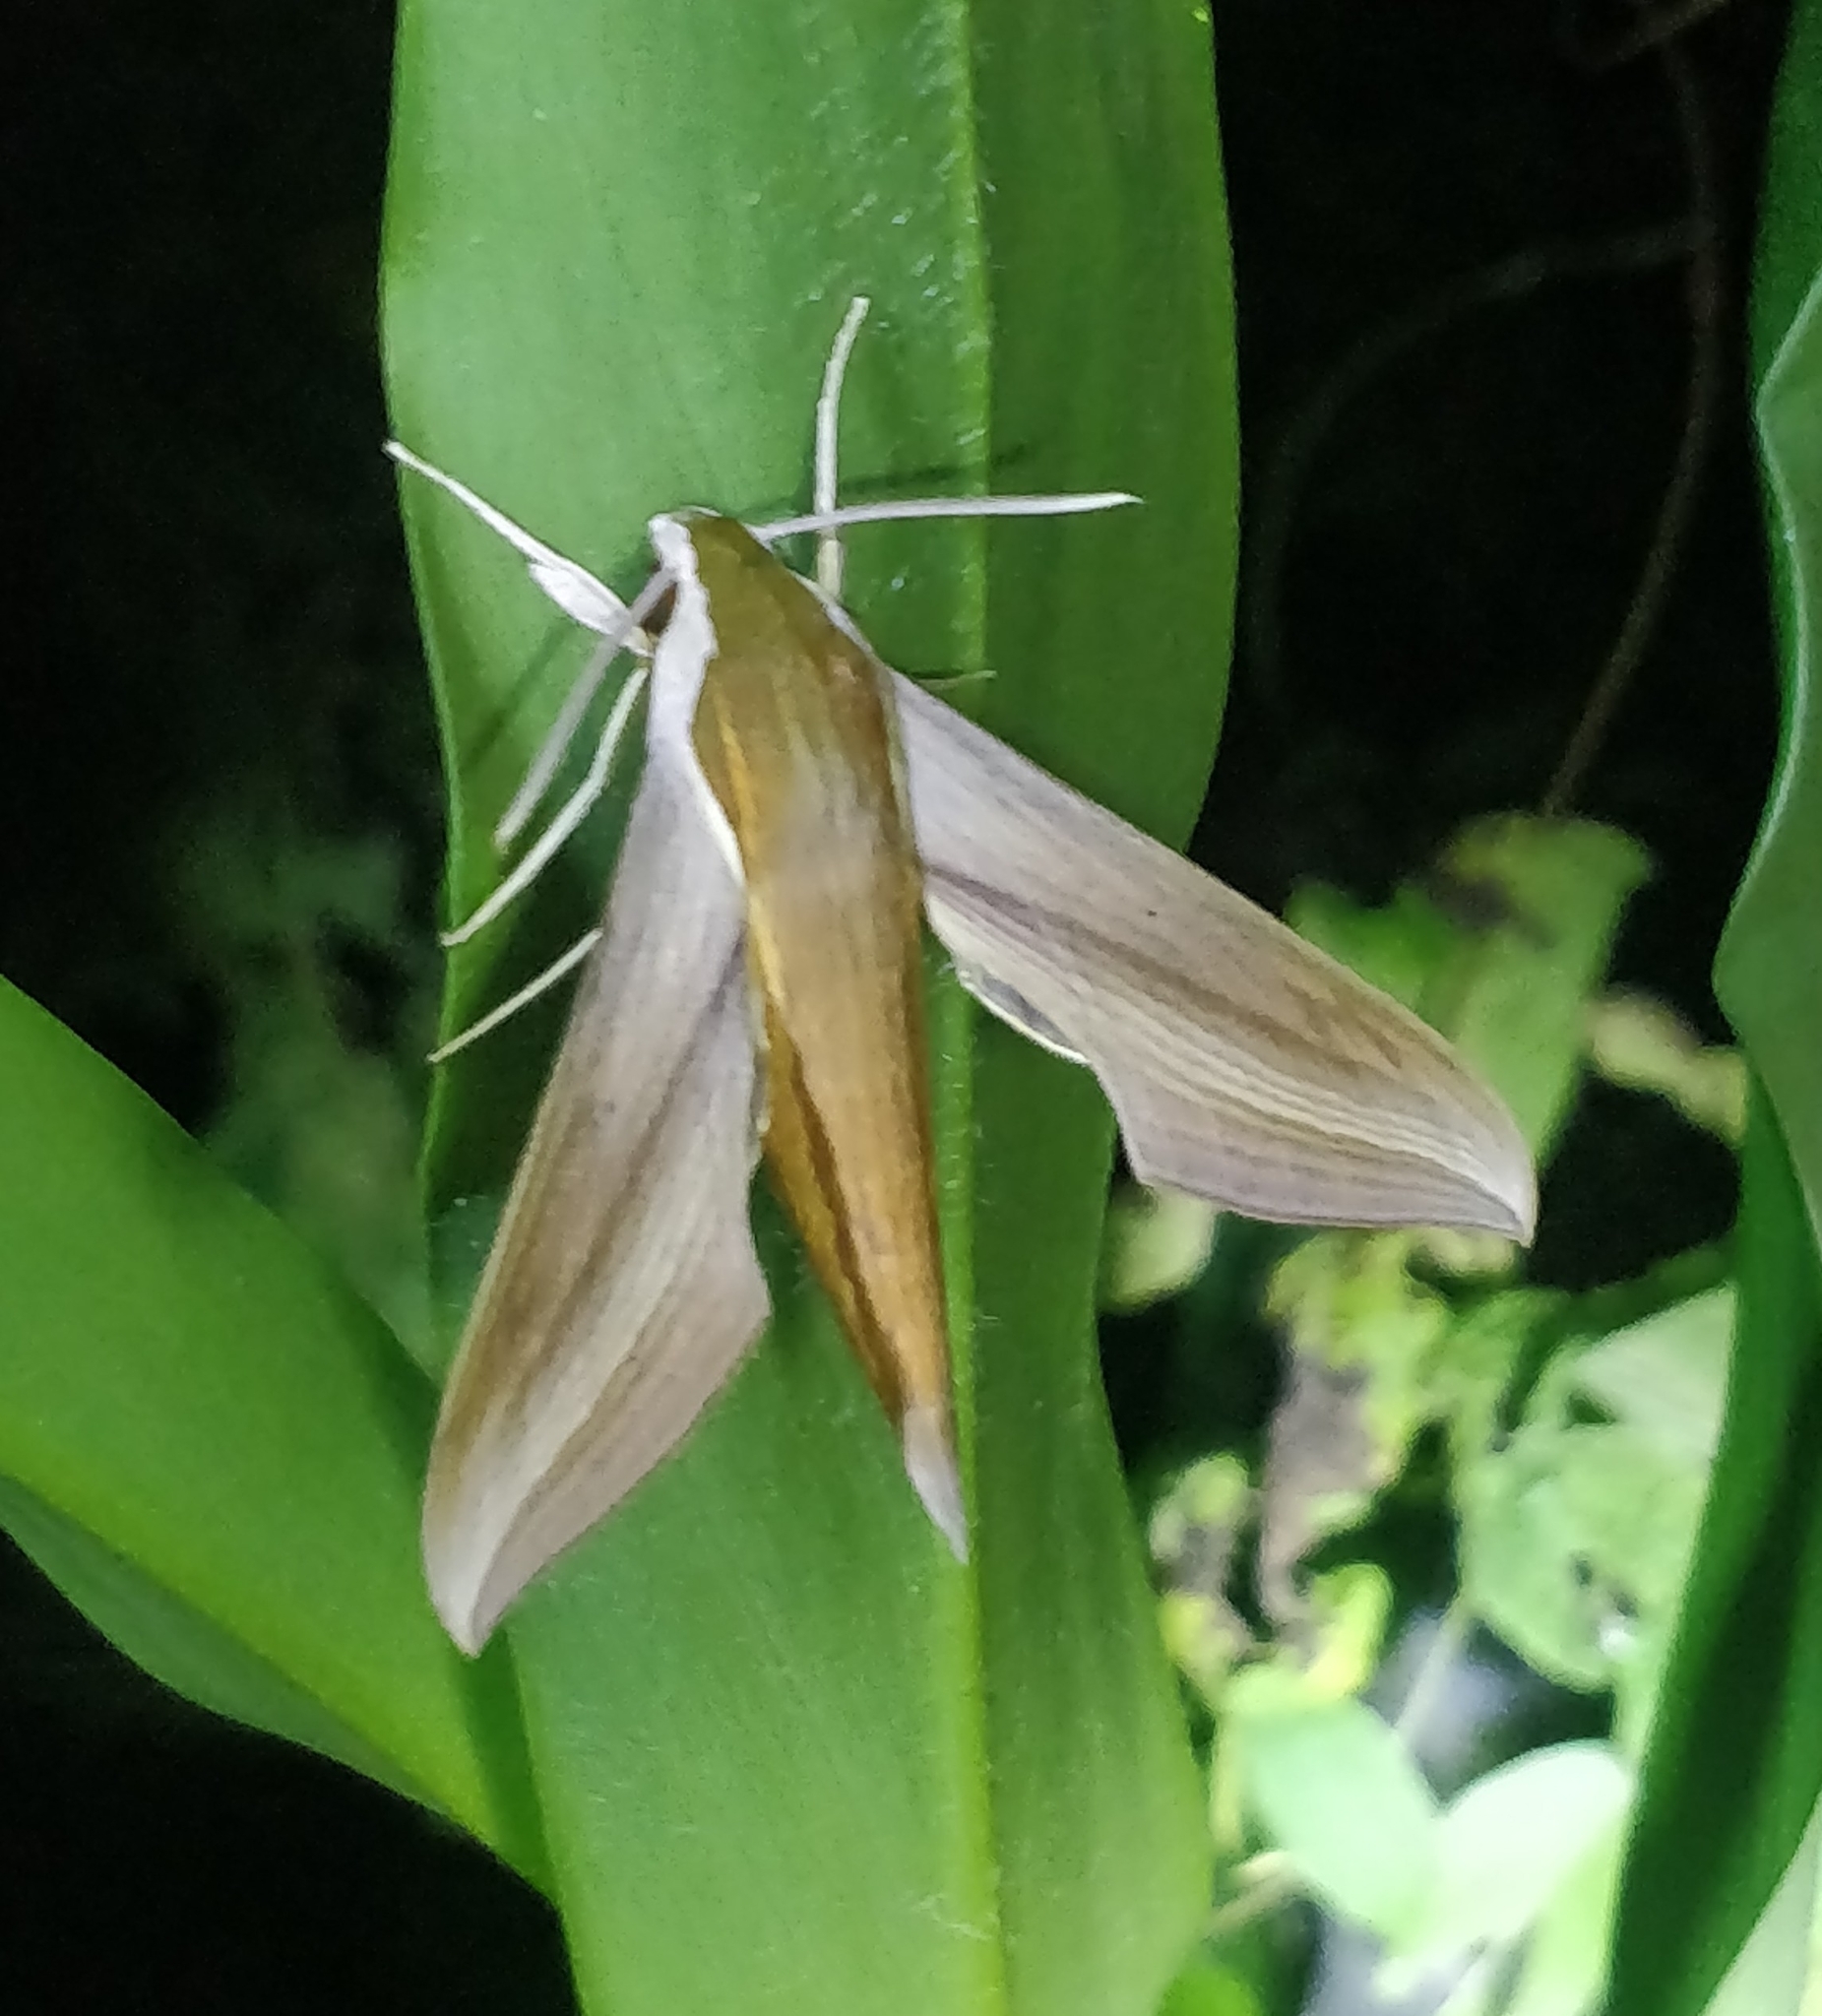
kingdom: Animalia
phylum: Arthropoda
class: Insecta
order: Lepidoptera
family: Sphingidae
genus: Xylophanes
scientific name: Xylophanes tersa
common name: Tersa sphinx
